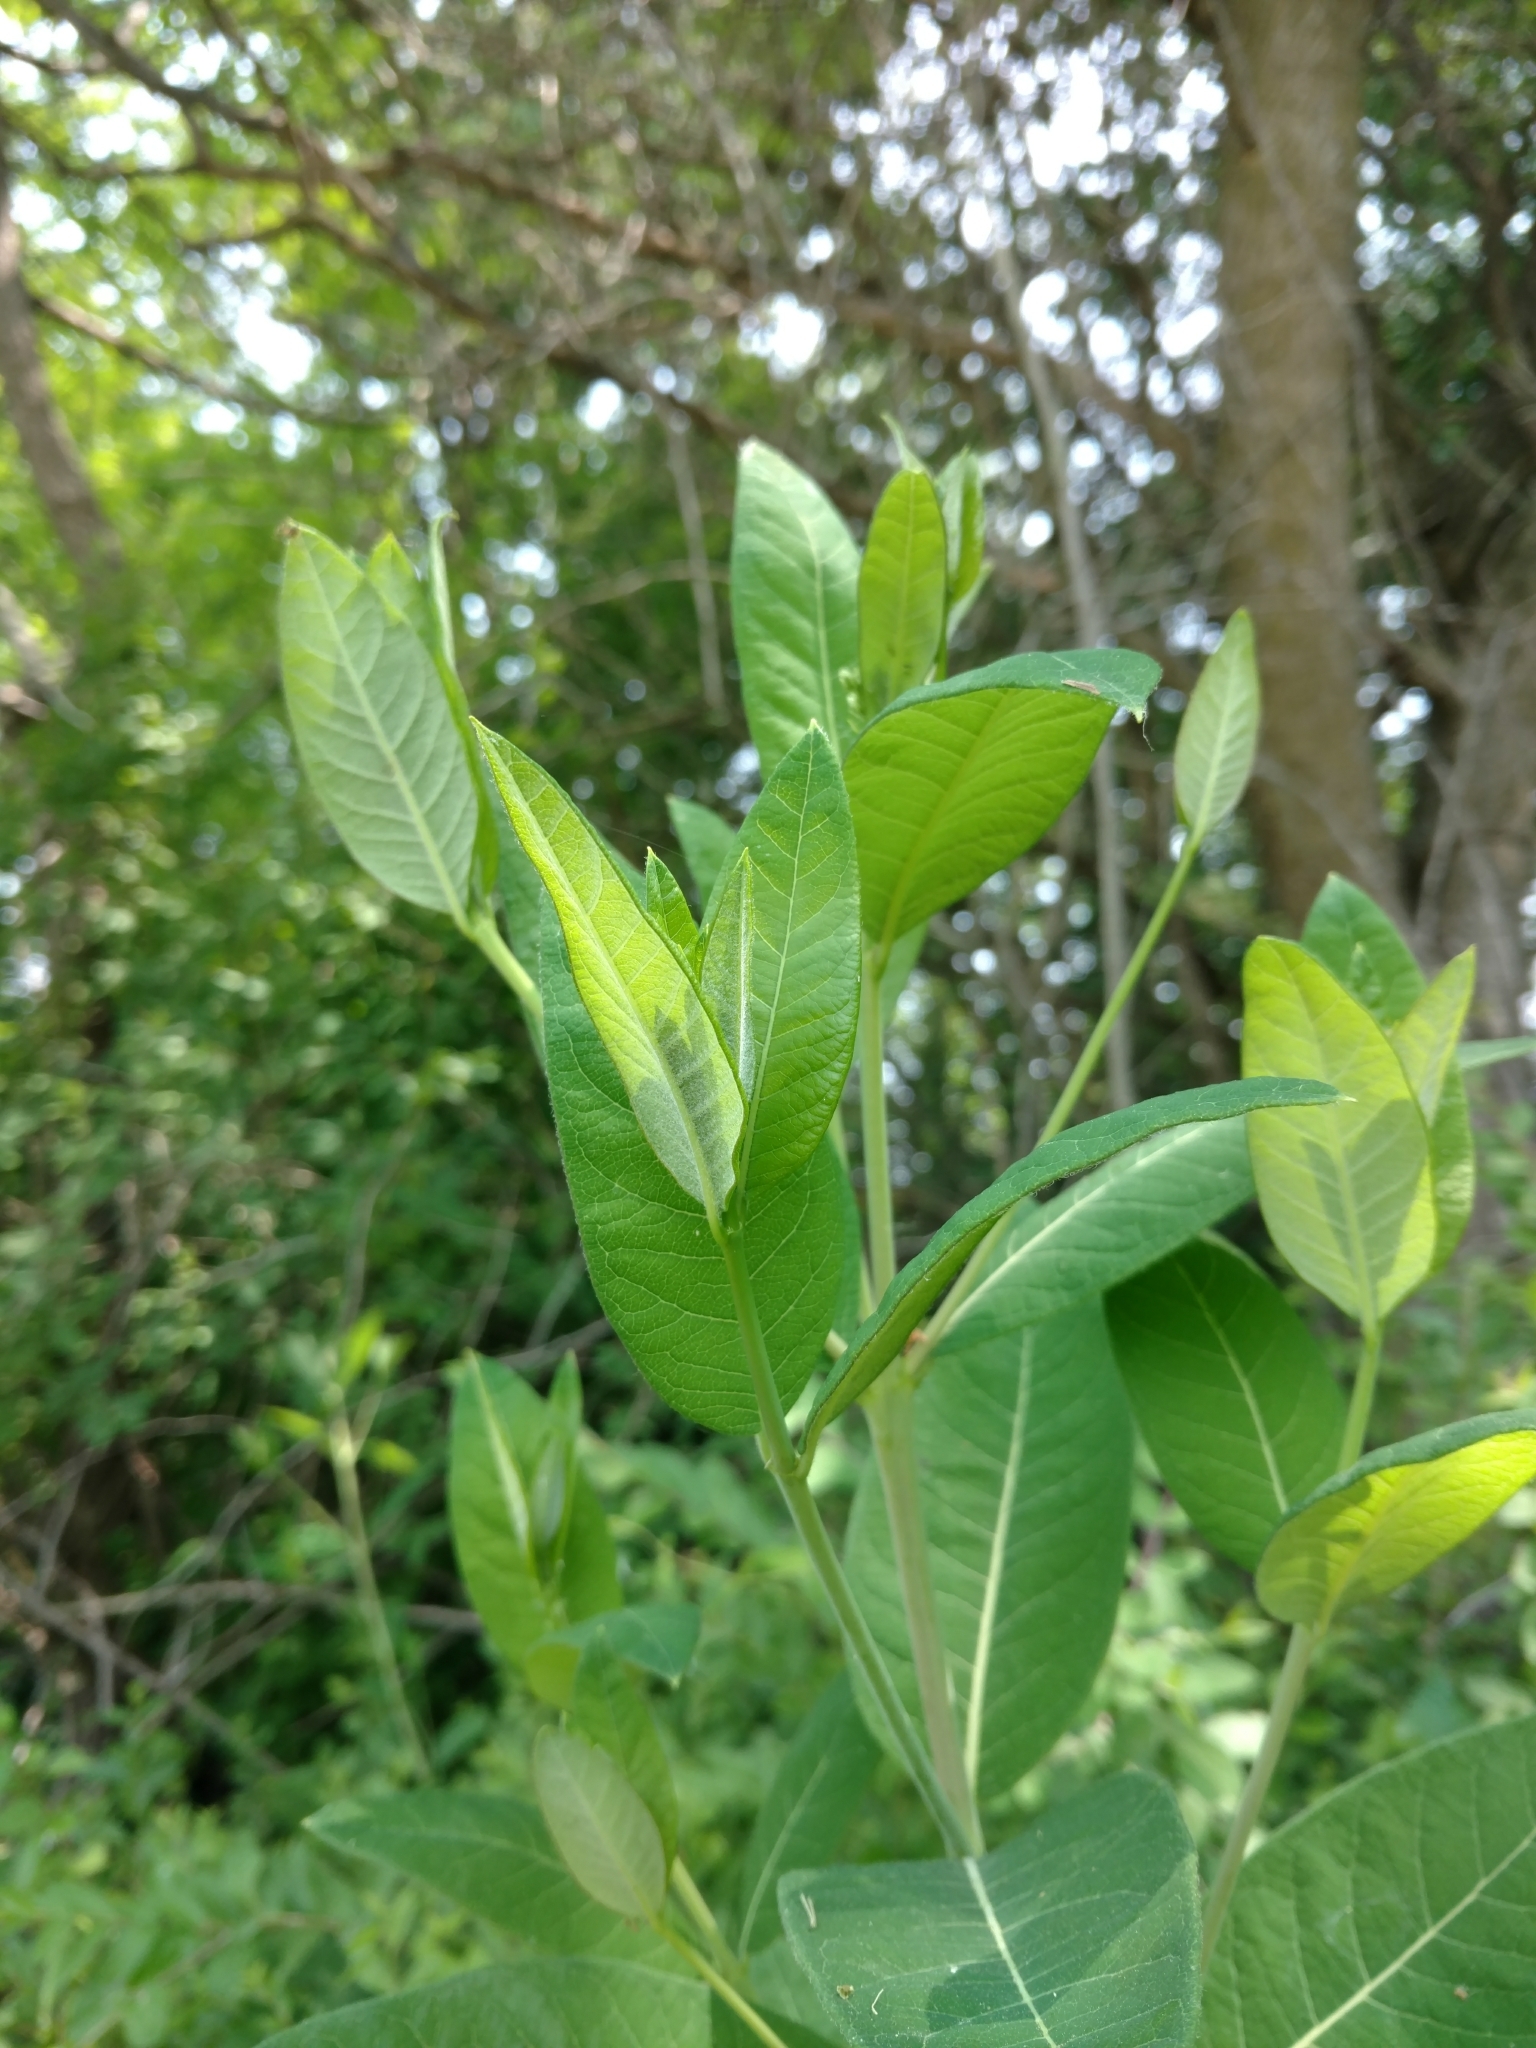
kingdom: Plantae
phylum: Tracheophyta
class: Magnoliopsida
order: Gentianales
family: Apocynaceae
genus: Apocynum
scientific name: Apocynum cannabinum
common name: Hemp dogbane
